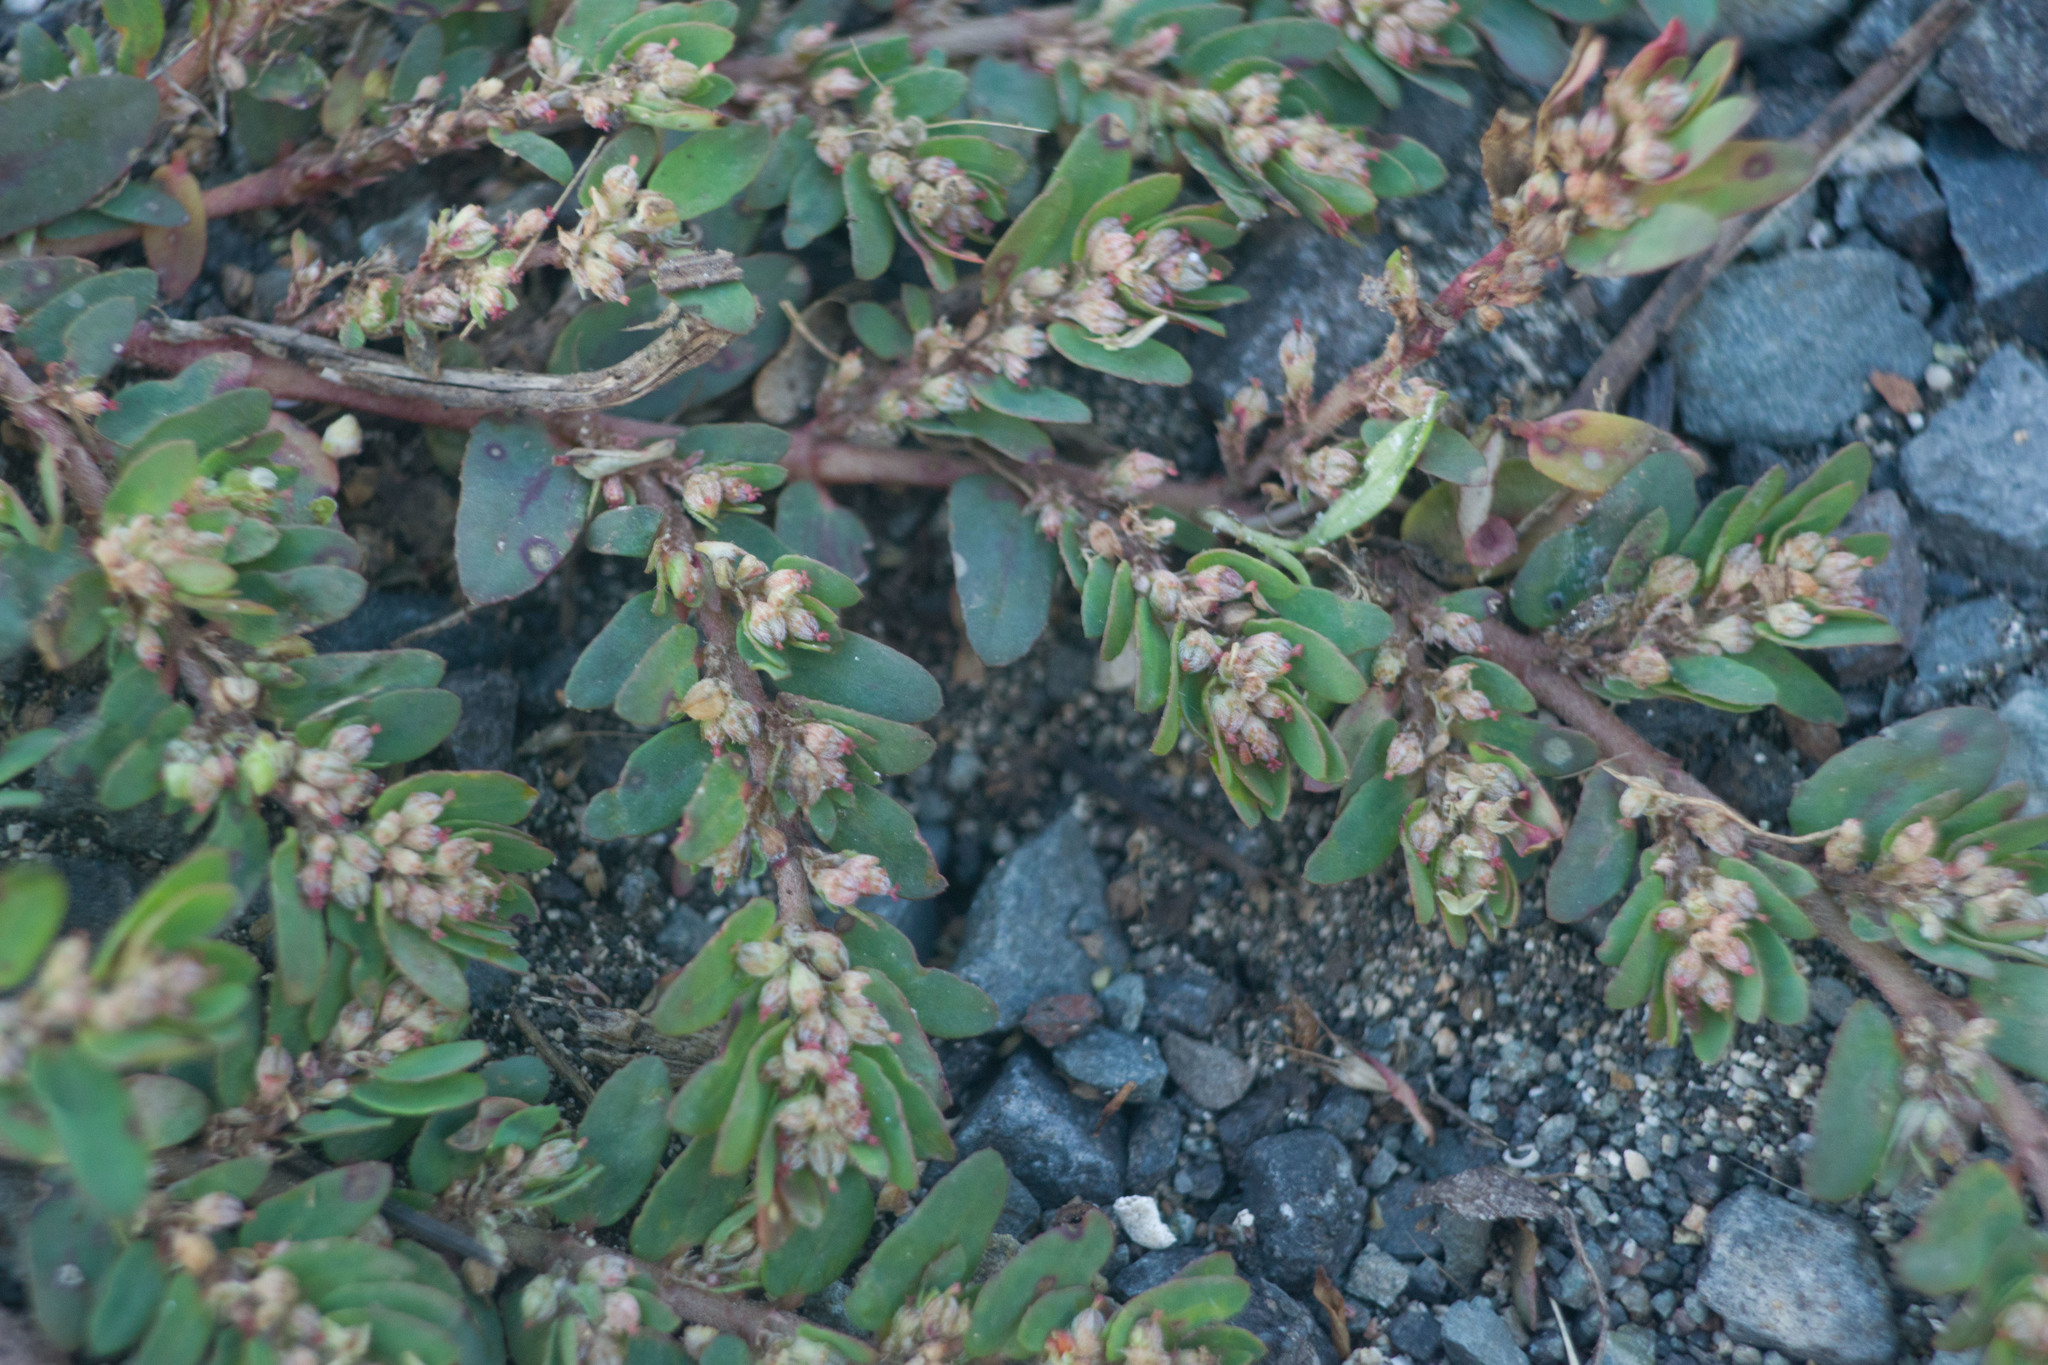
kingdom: Plantae
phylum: Tracheophyta
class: Magnoliopsida
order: Malpighiales
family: Euphorbiaceae
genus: Euphorbia
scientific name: Euphorbia thymifolia
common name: Gulf sandmat
